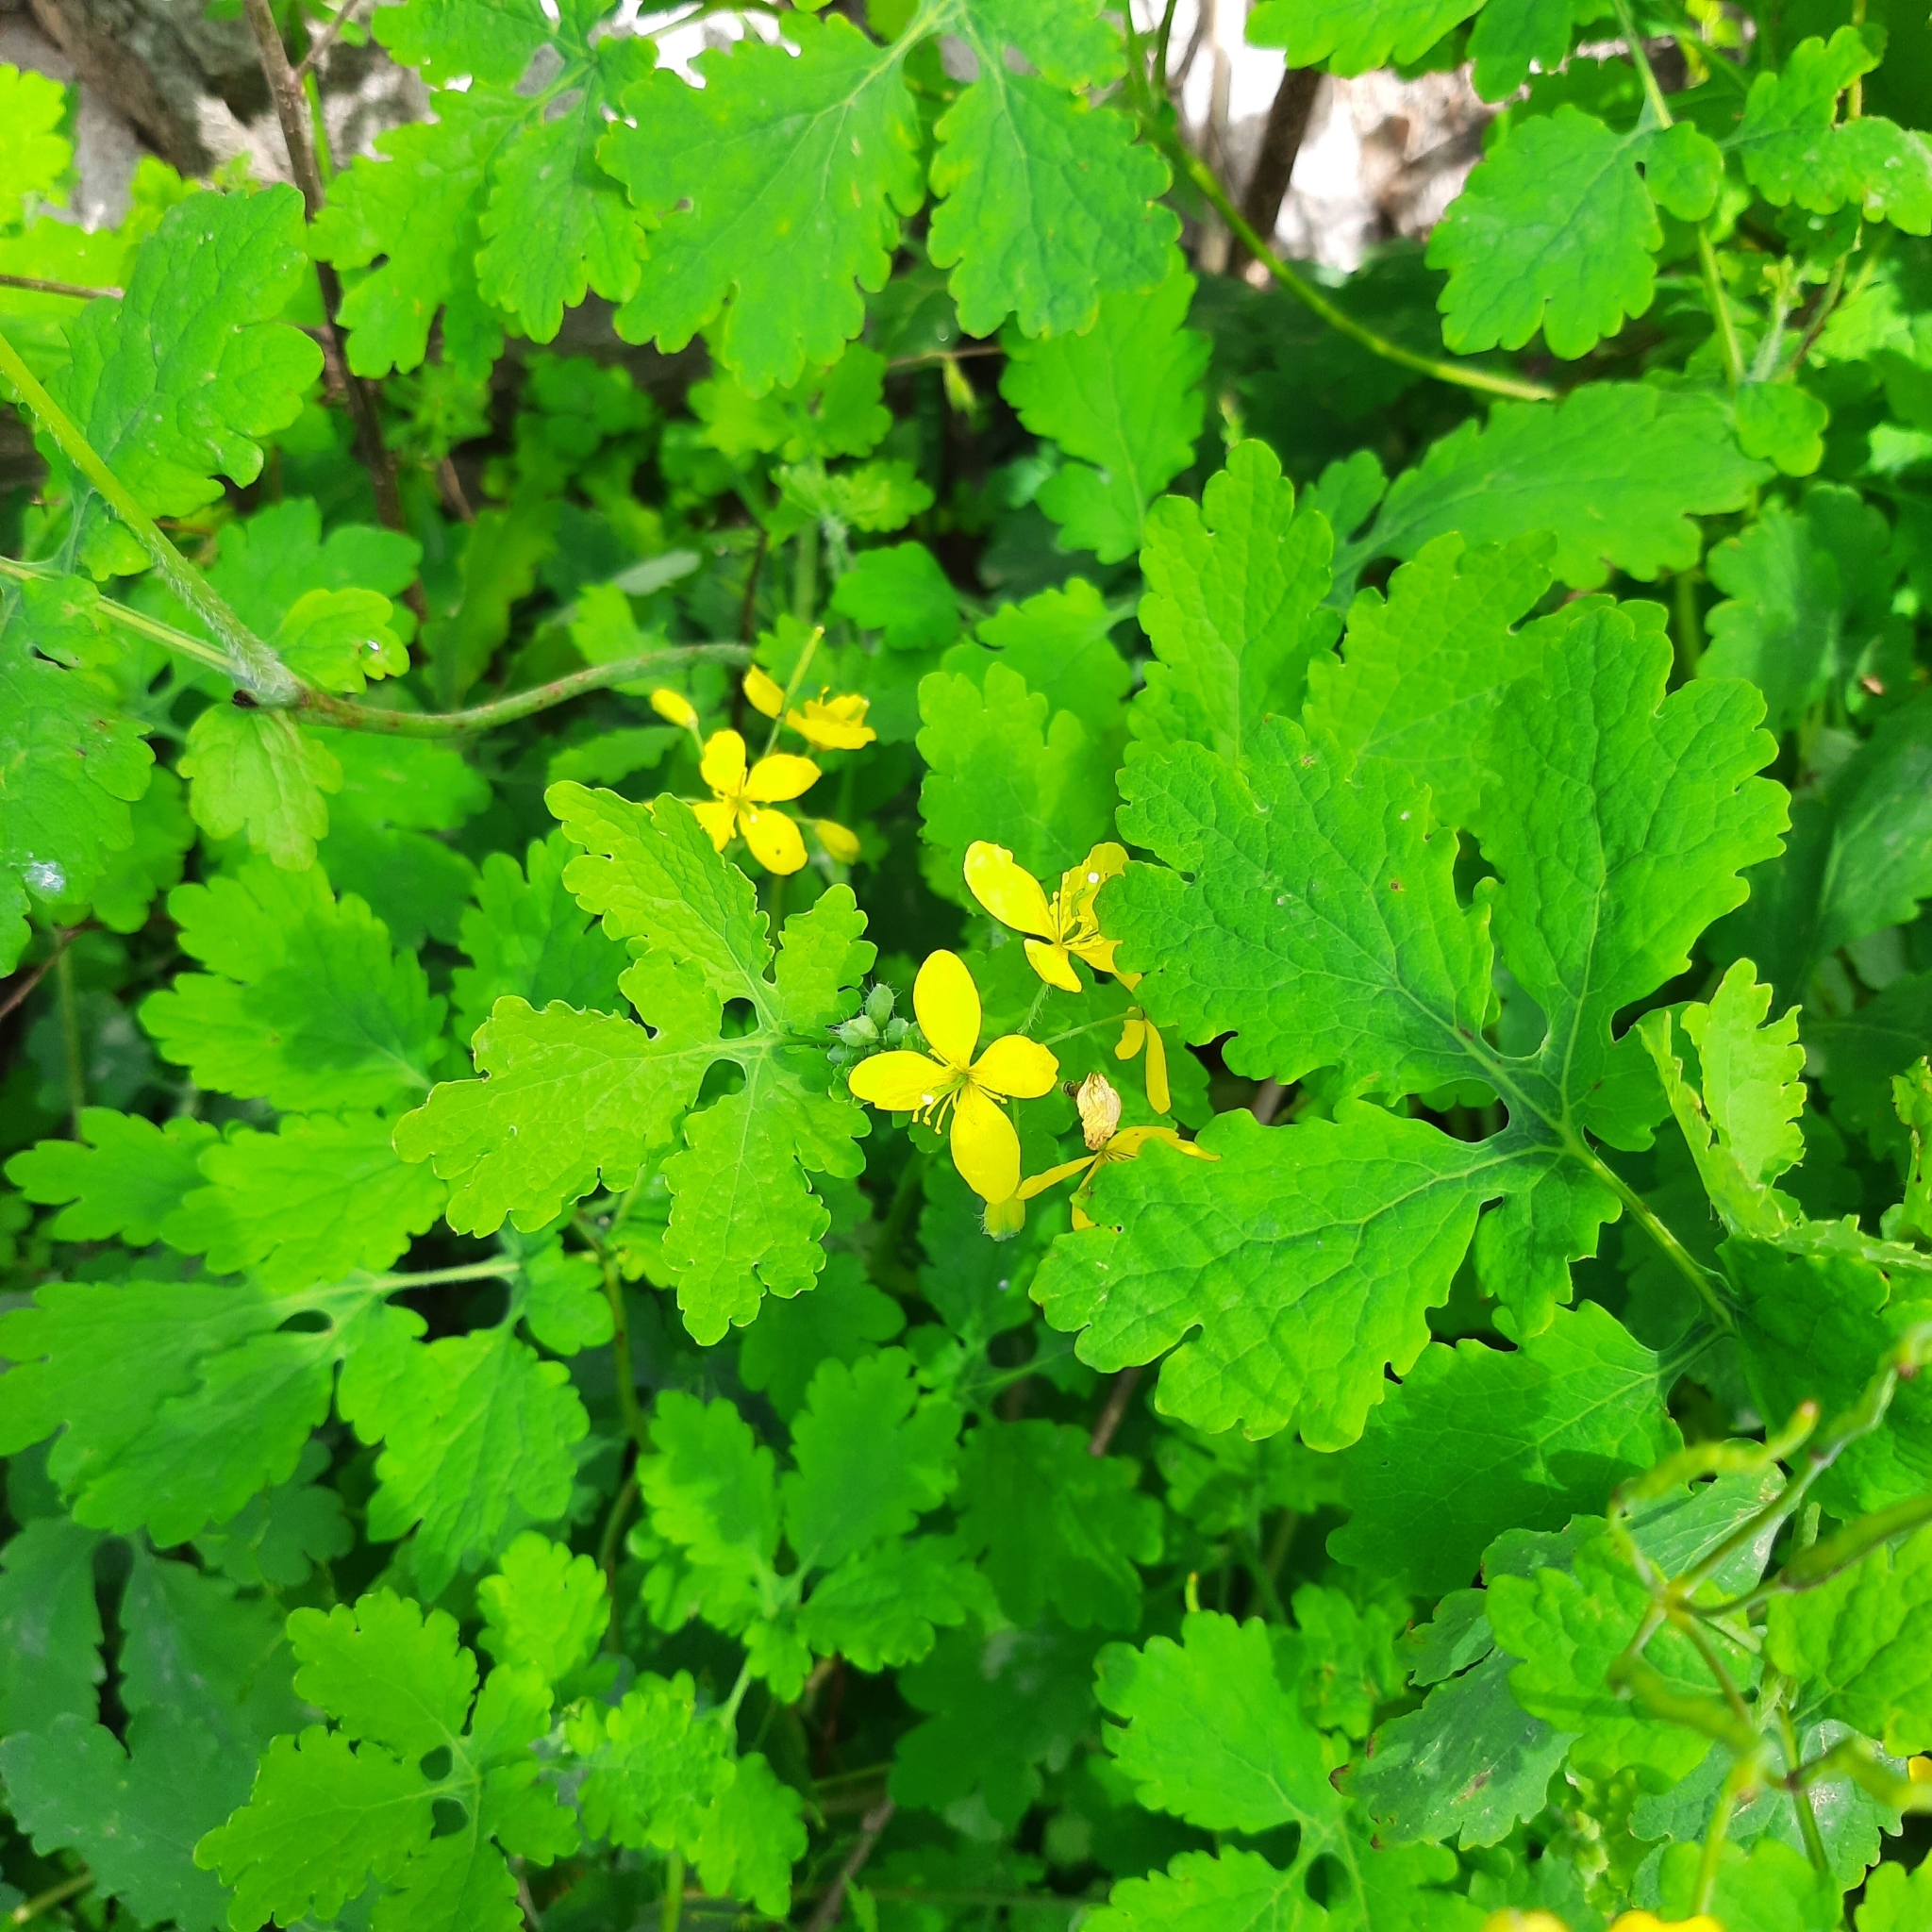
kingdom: Plantae
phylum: Tracheophyta
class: Magnoliopsida
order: Ranunculales
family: Papaveraceae
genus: Chelidonium
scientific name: Chelidonium majus
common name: Greater celandine
